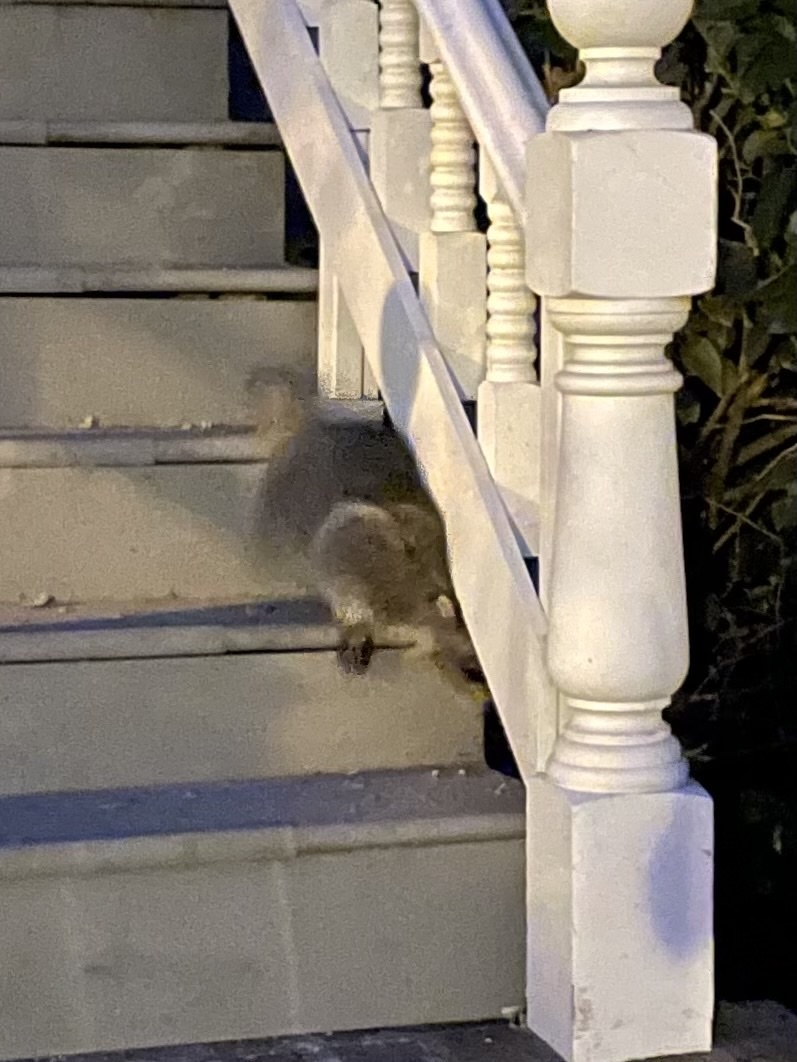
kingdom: Animalia
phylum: Chordata
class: Mammalia
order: Carnivora
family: Procyonidae
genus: Procyon
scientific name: Procyon lotor
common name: Raccoon
